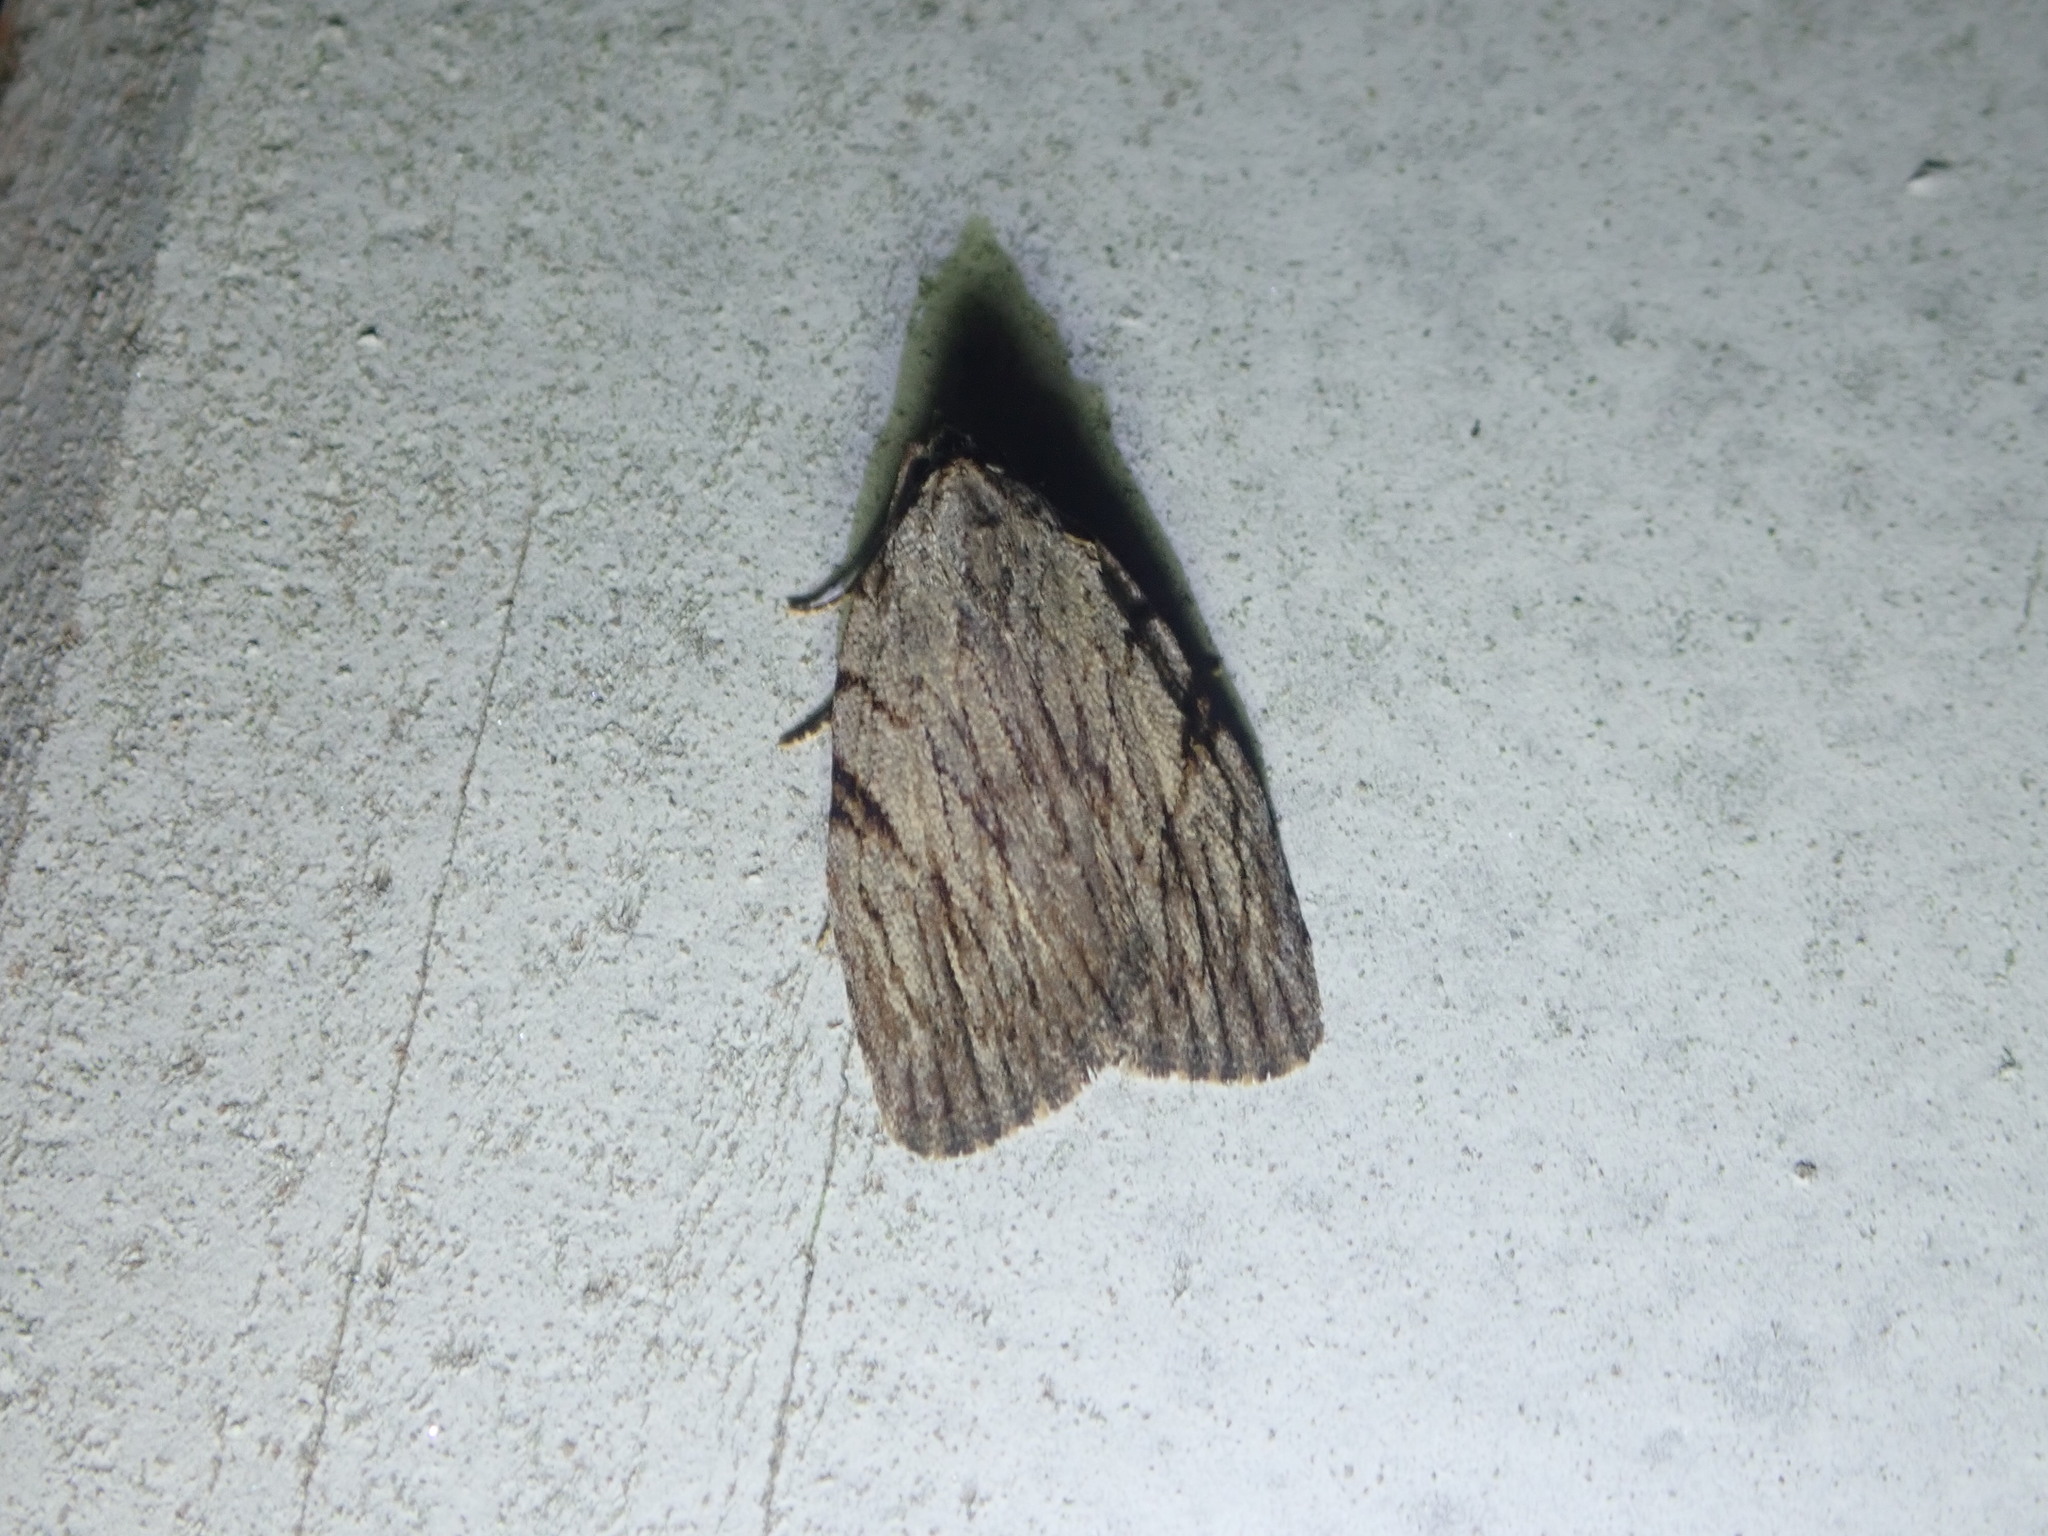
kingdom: Animalia
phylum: Arthropoda
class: Insecta
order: Lepidoptera
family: Noctuidae
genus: Balsa
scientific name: Balsa tristrigella
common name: Three-lined balsa moth
